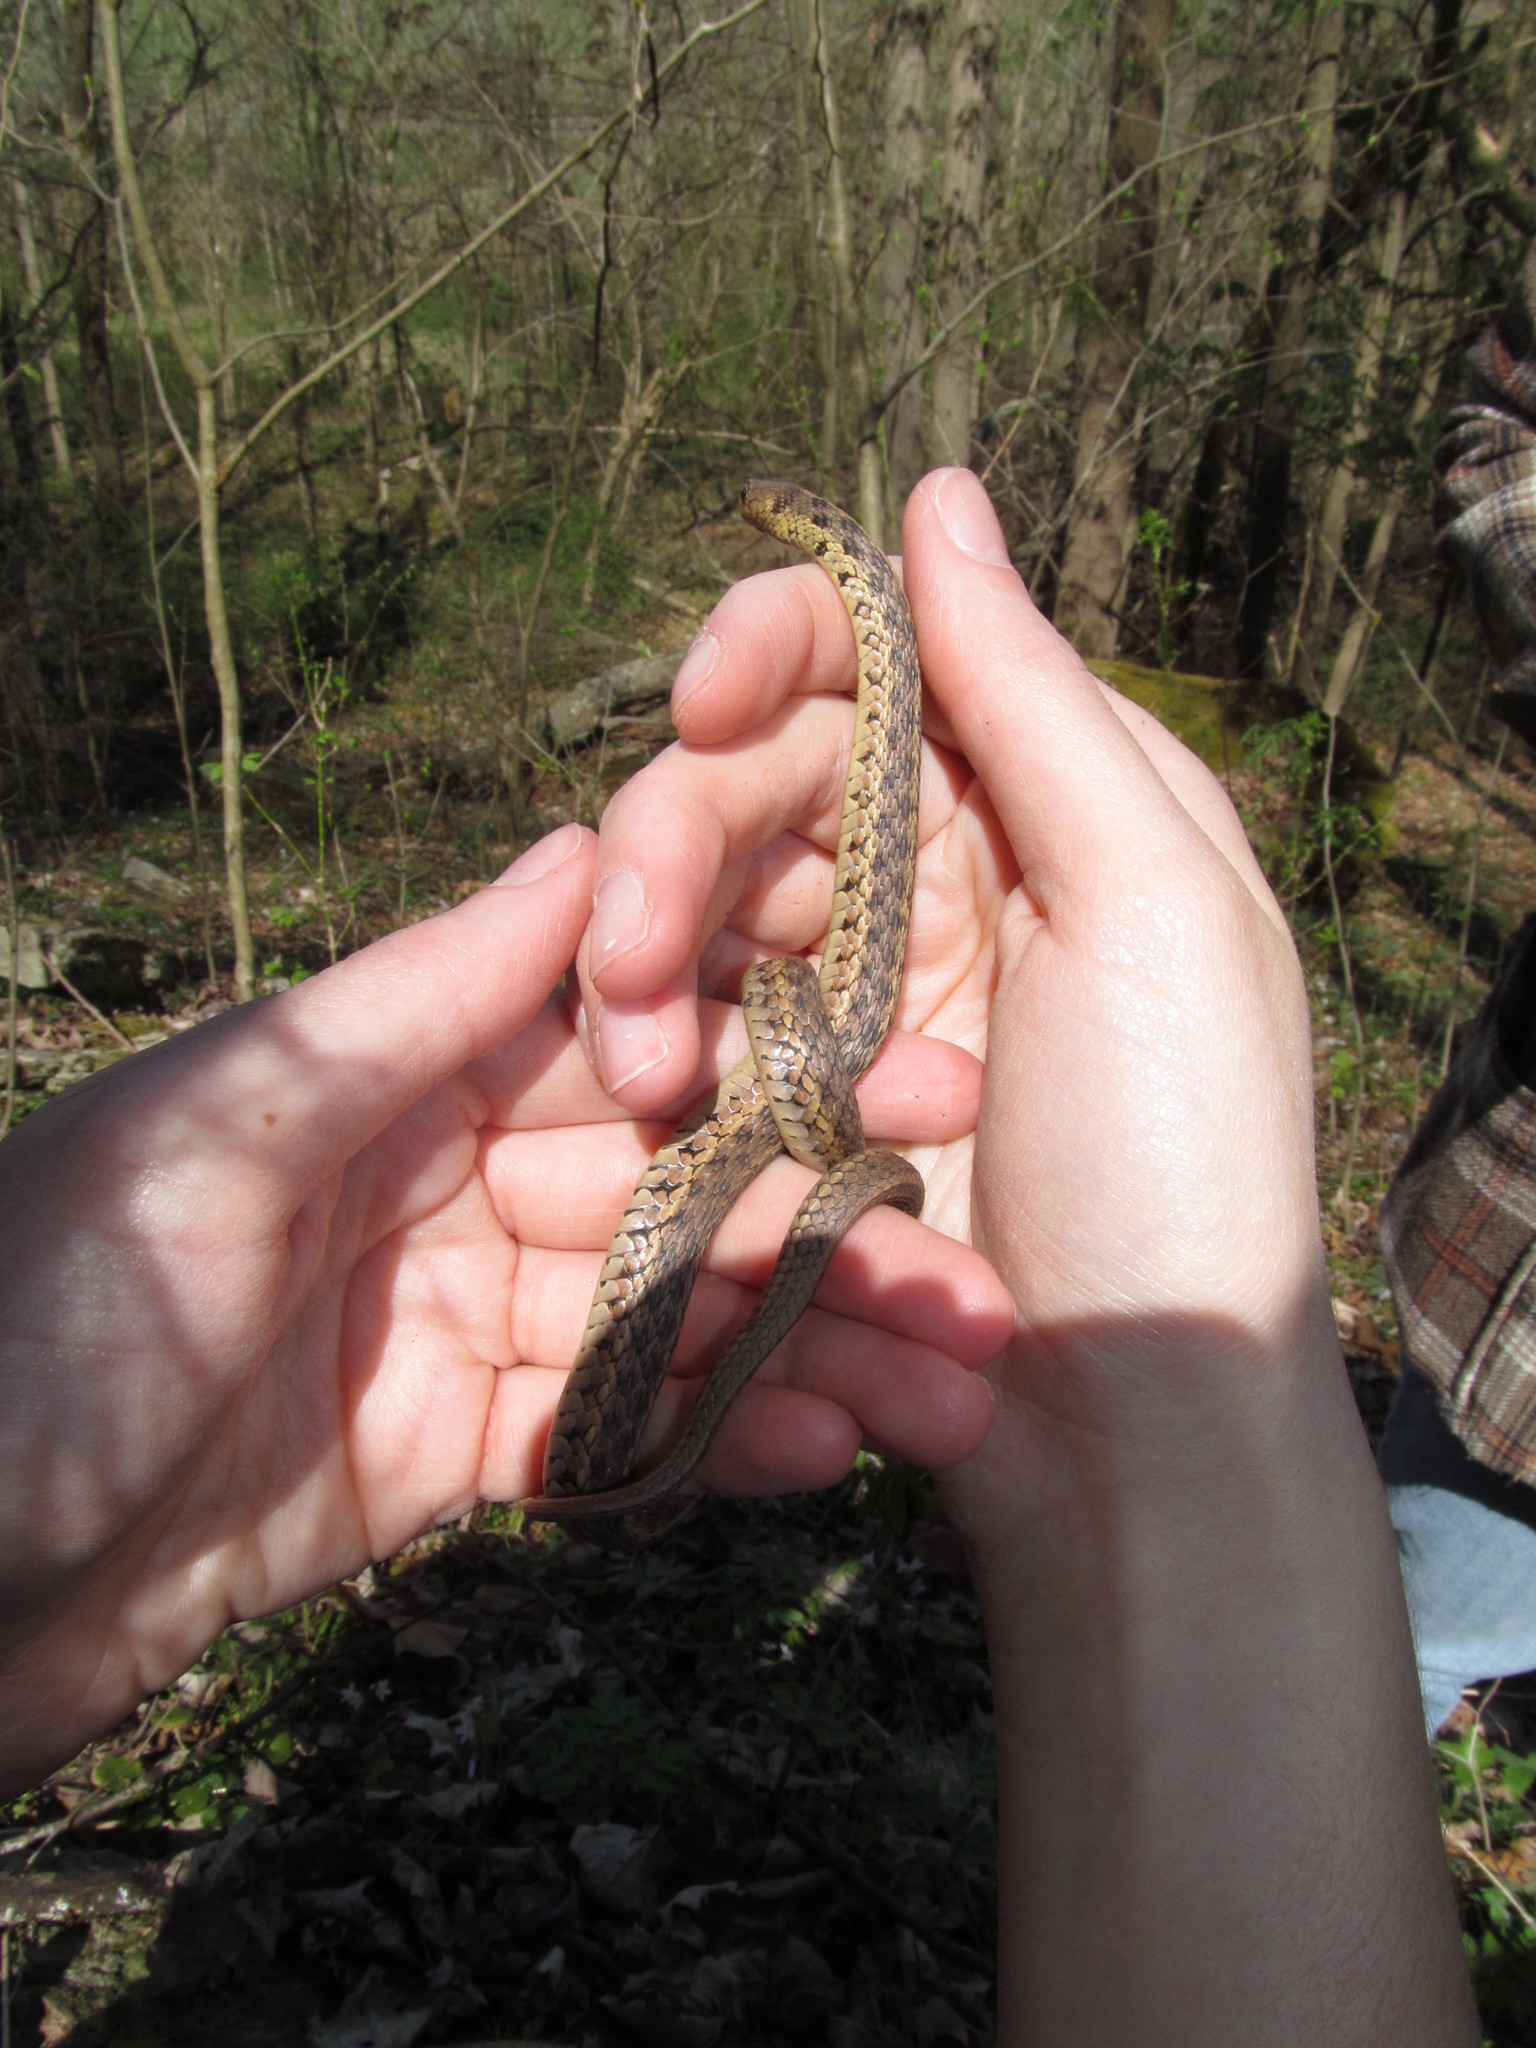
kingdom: Animalia
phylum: Chordata
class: Squamata
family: Colubridae
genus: Thamnophis
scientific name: Thamnophis sirtalis
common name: Common garter snake
